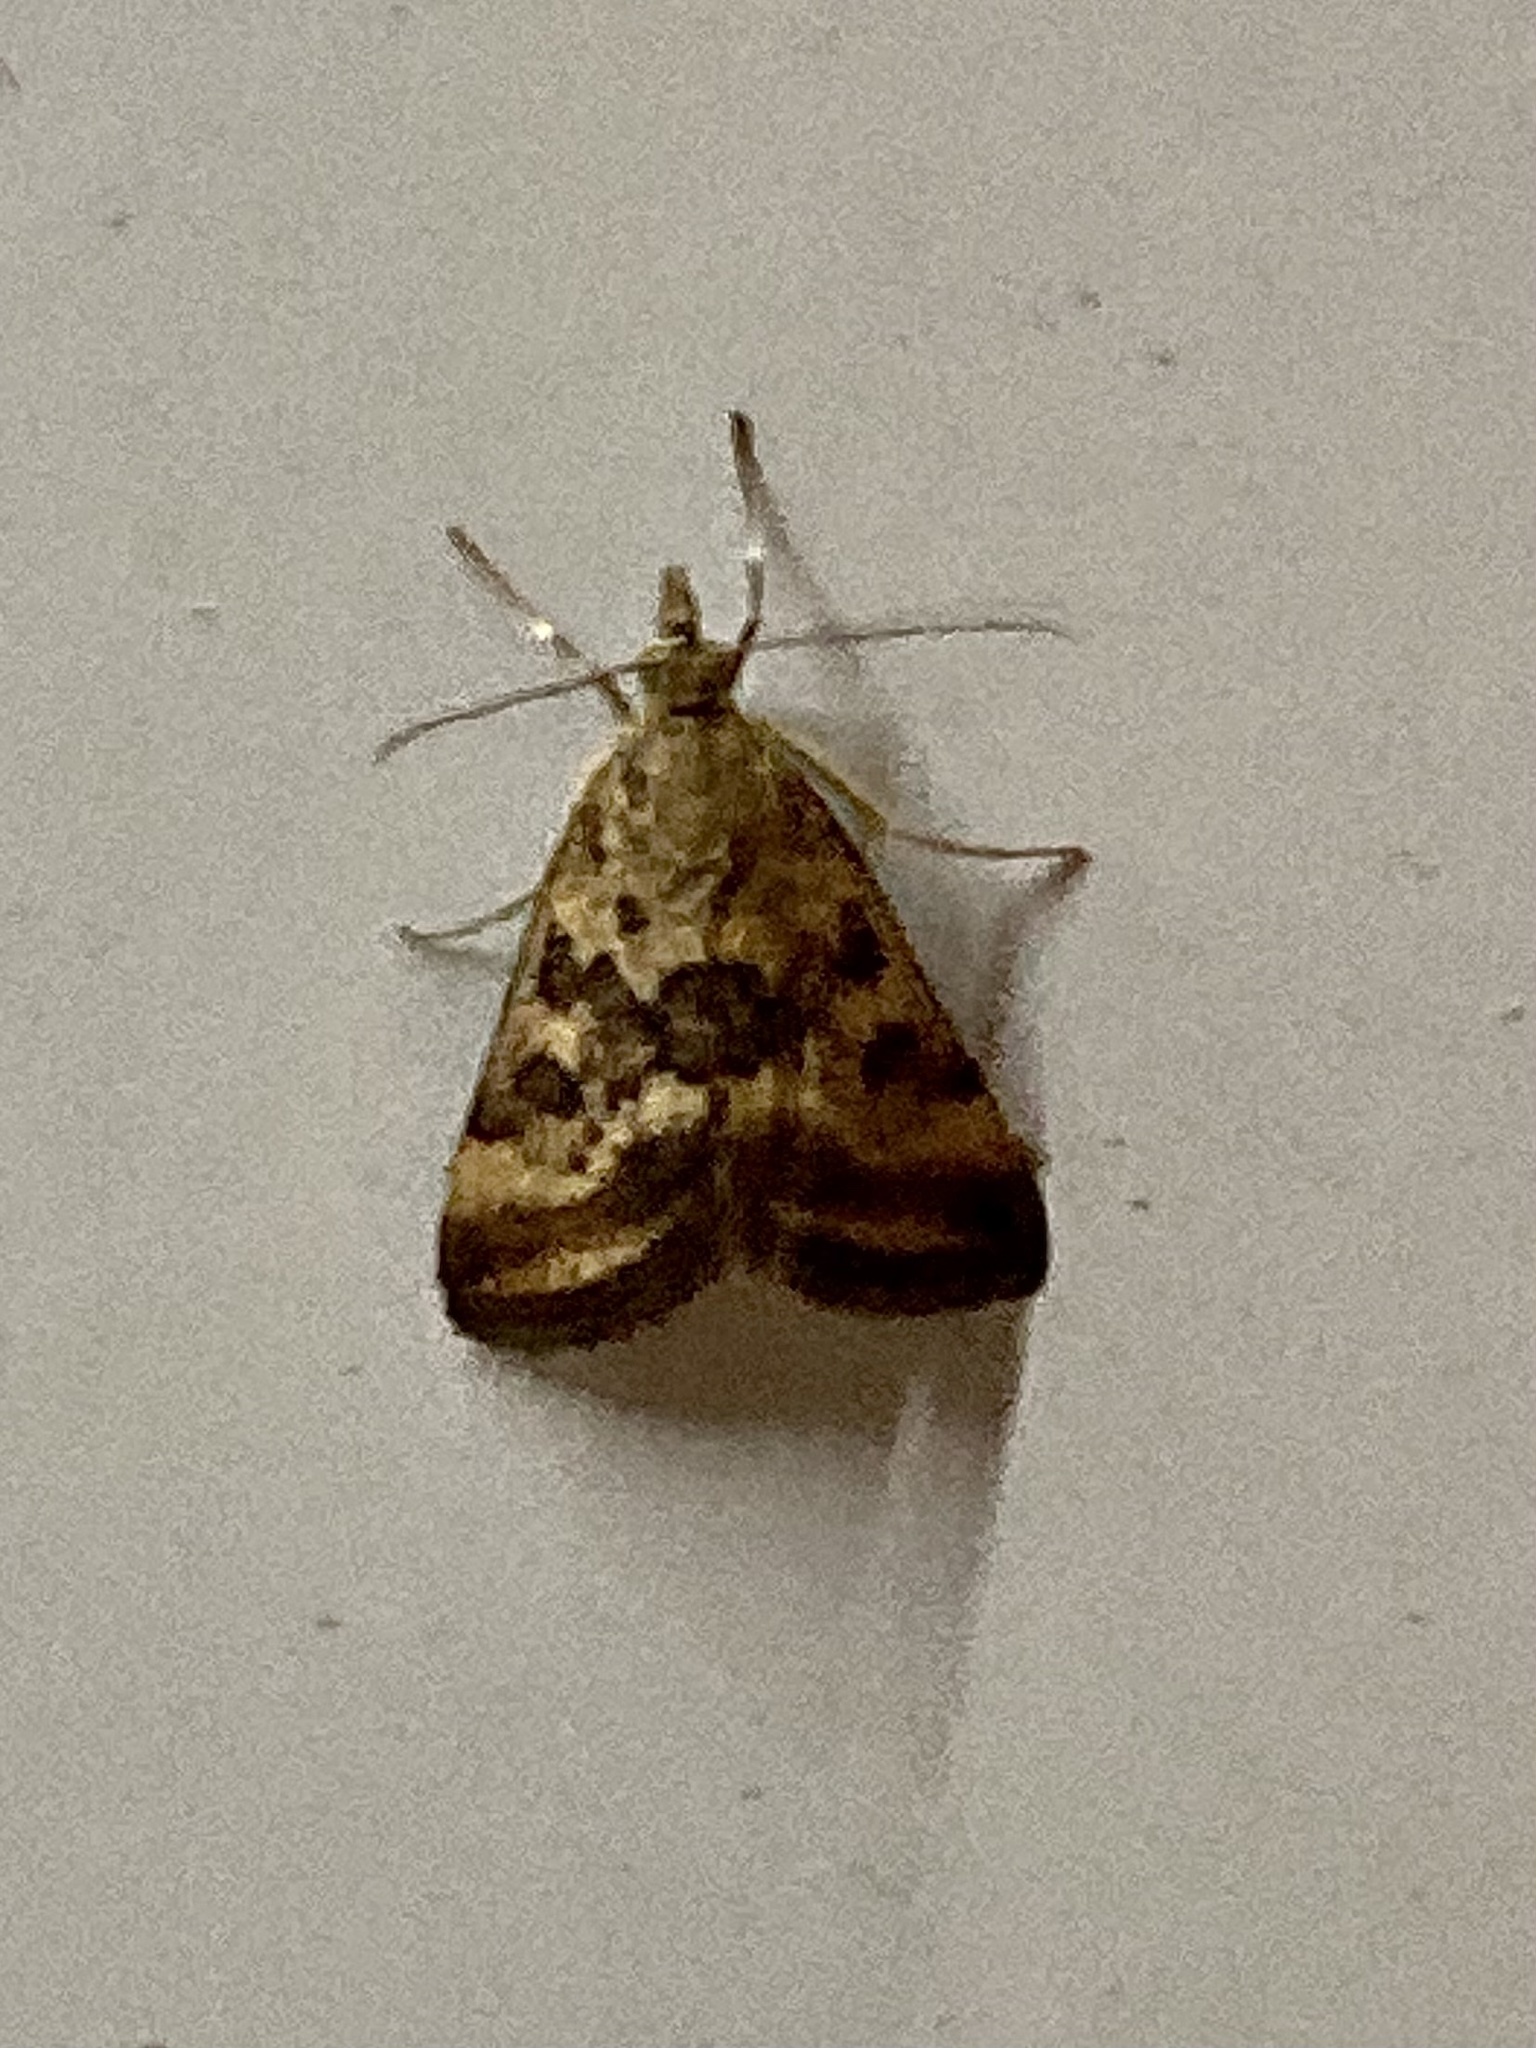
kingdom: Animalia
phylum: Arthropoda
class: Insecta
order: Lepidoptera
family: Crambidae
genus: Pyrausta
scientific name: Pyrausta despicata
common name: Straw-barred pearl
